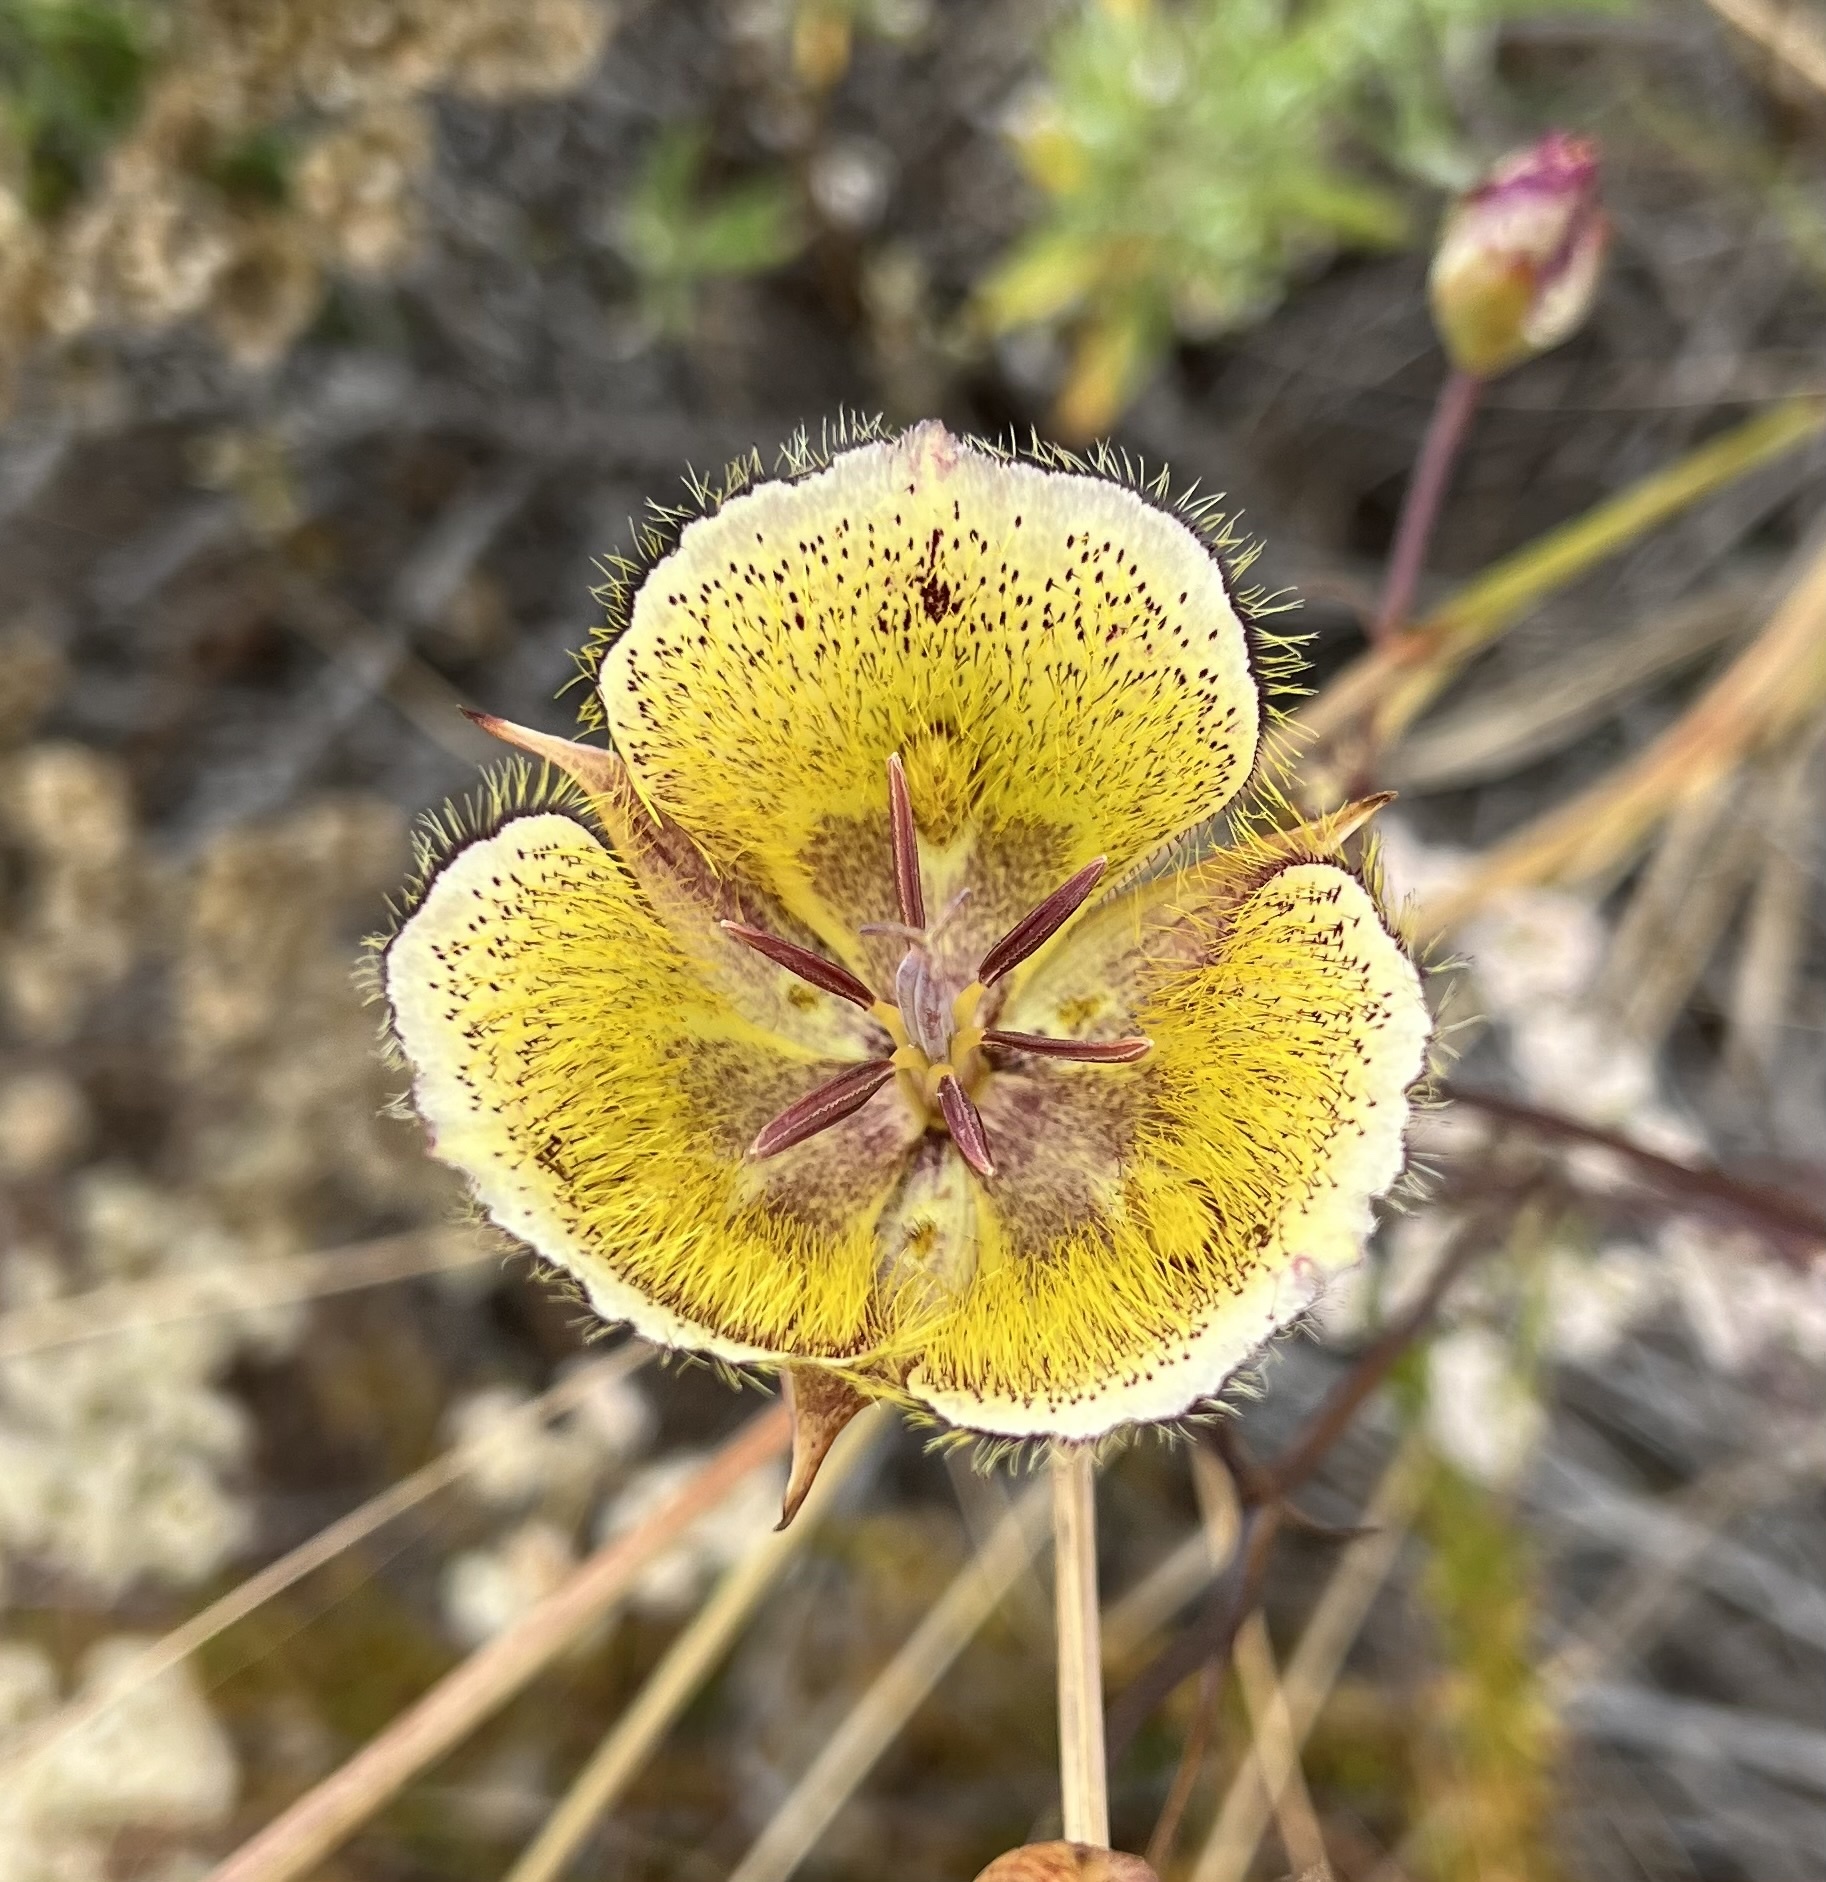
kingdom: Plantae
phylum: Tracheophyta
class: Liliopsida
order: Liliales
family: Liliaceae
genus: Calochortus
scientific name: Calochortus weedii
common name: Weed's mariposa-lily
